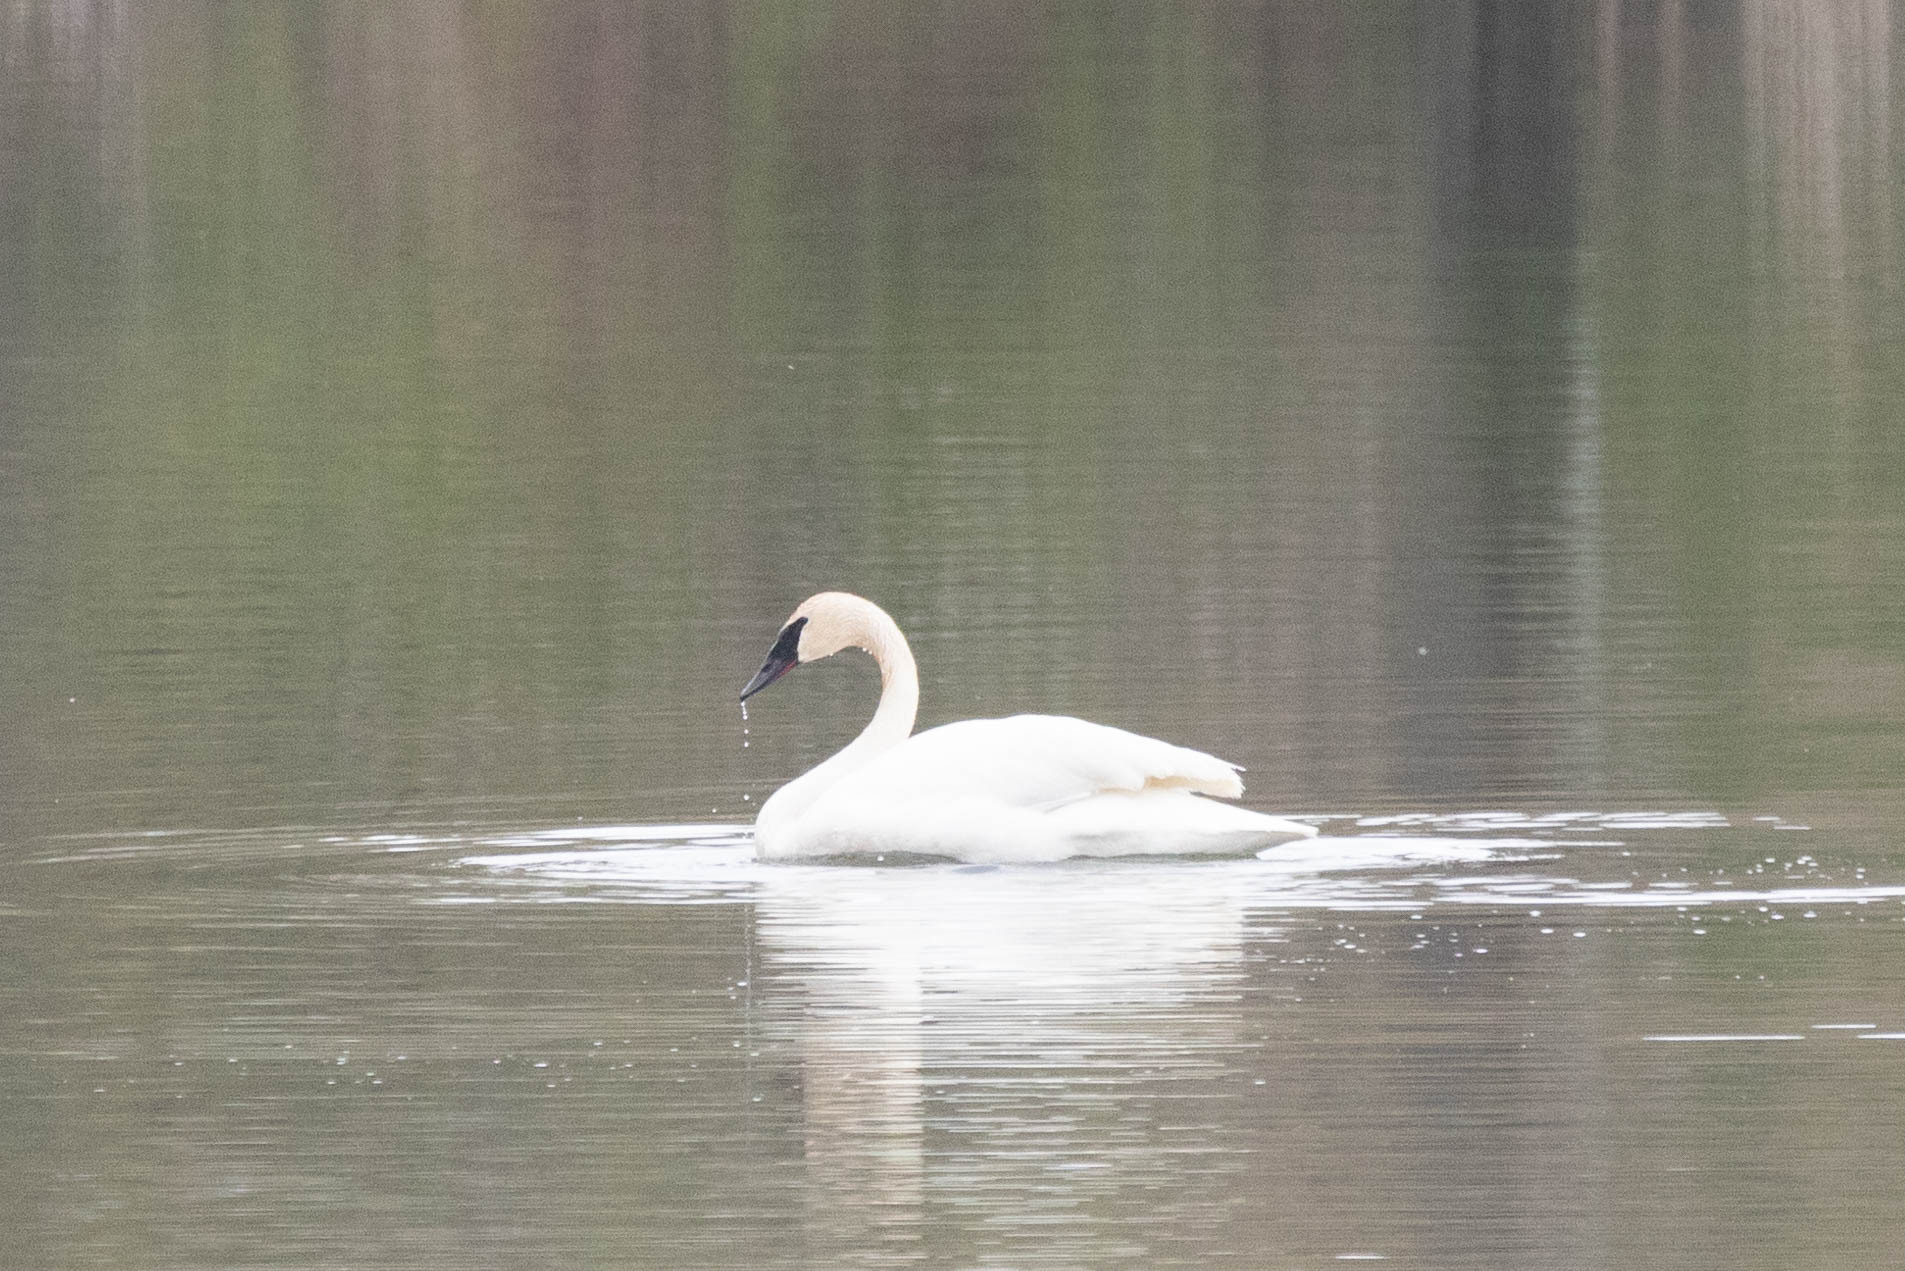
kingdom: Animalia
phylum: Chordata
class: Aves
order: Anseriformes
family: Anatidae
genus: Cygnus
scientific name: Cygnus buccinator
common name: Trumpeter swan
